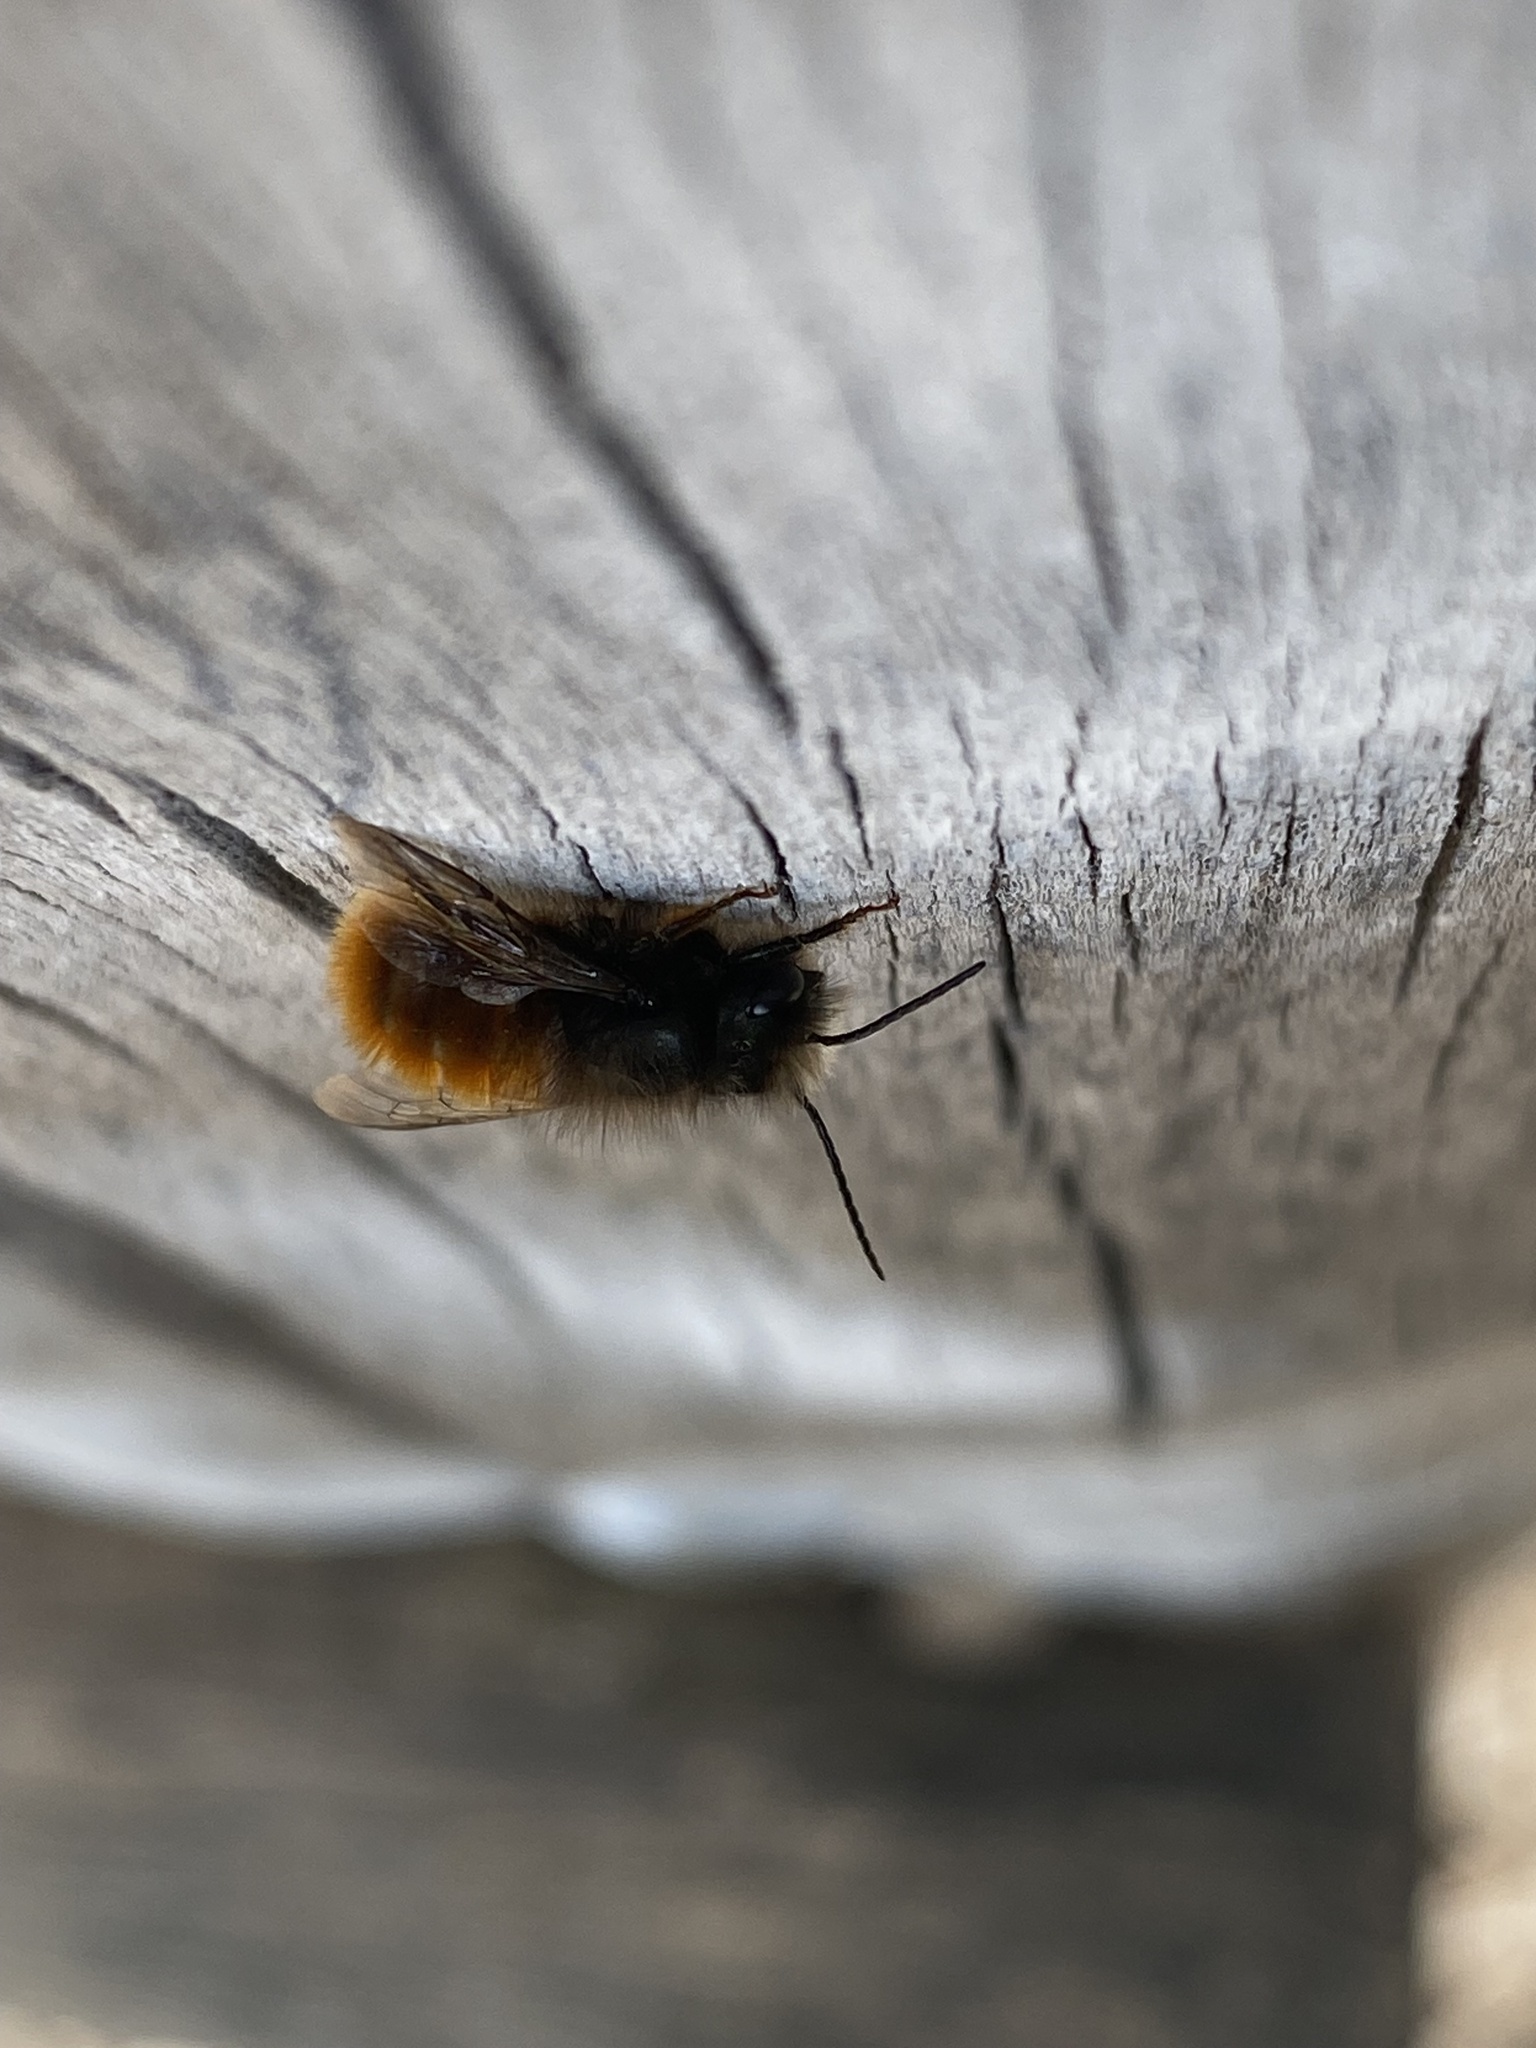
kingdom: Animalia
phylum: Arthropoda
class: Insecta
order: Hymenoptera
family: Megachilidae
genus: Osmia
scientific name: Osmia cornuta
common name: Mason bee
